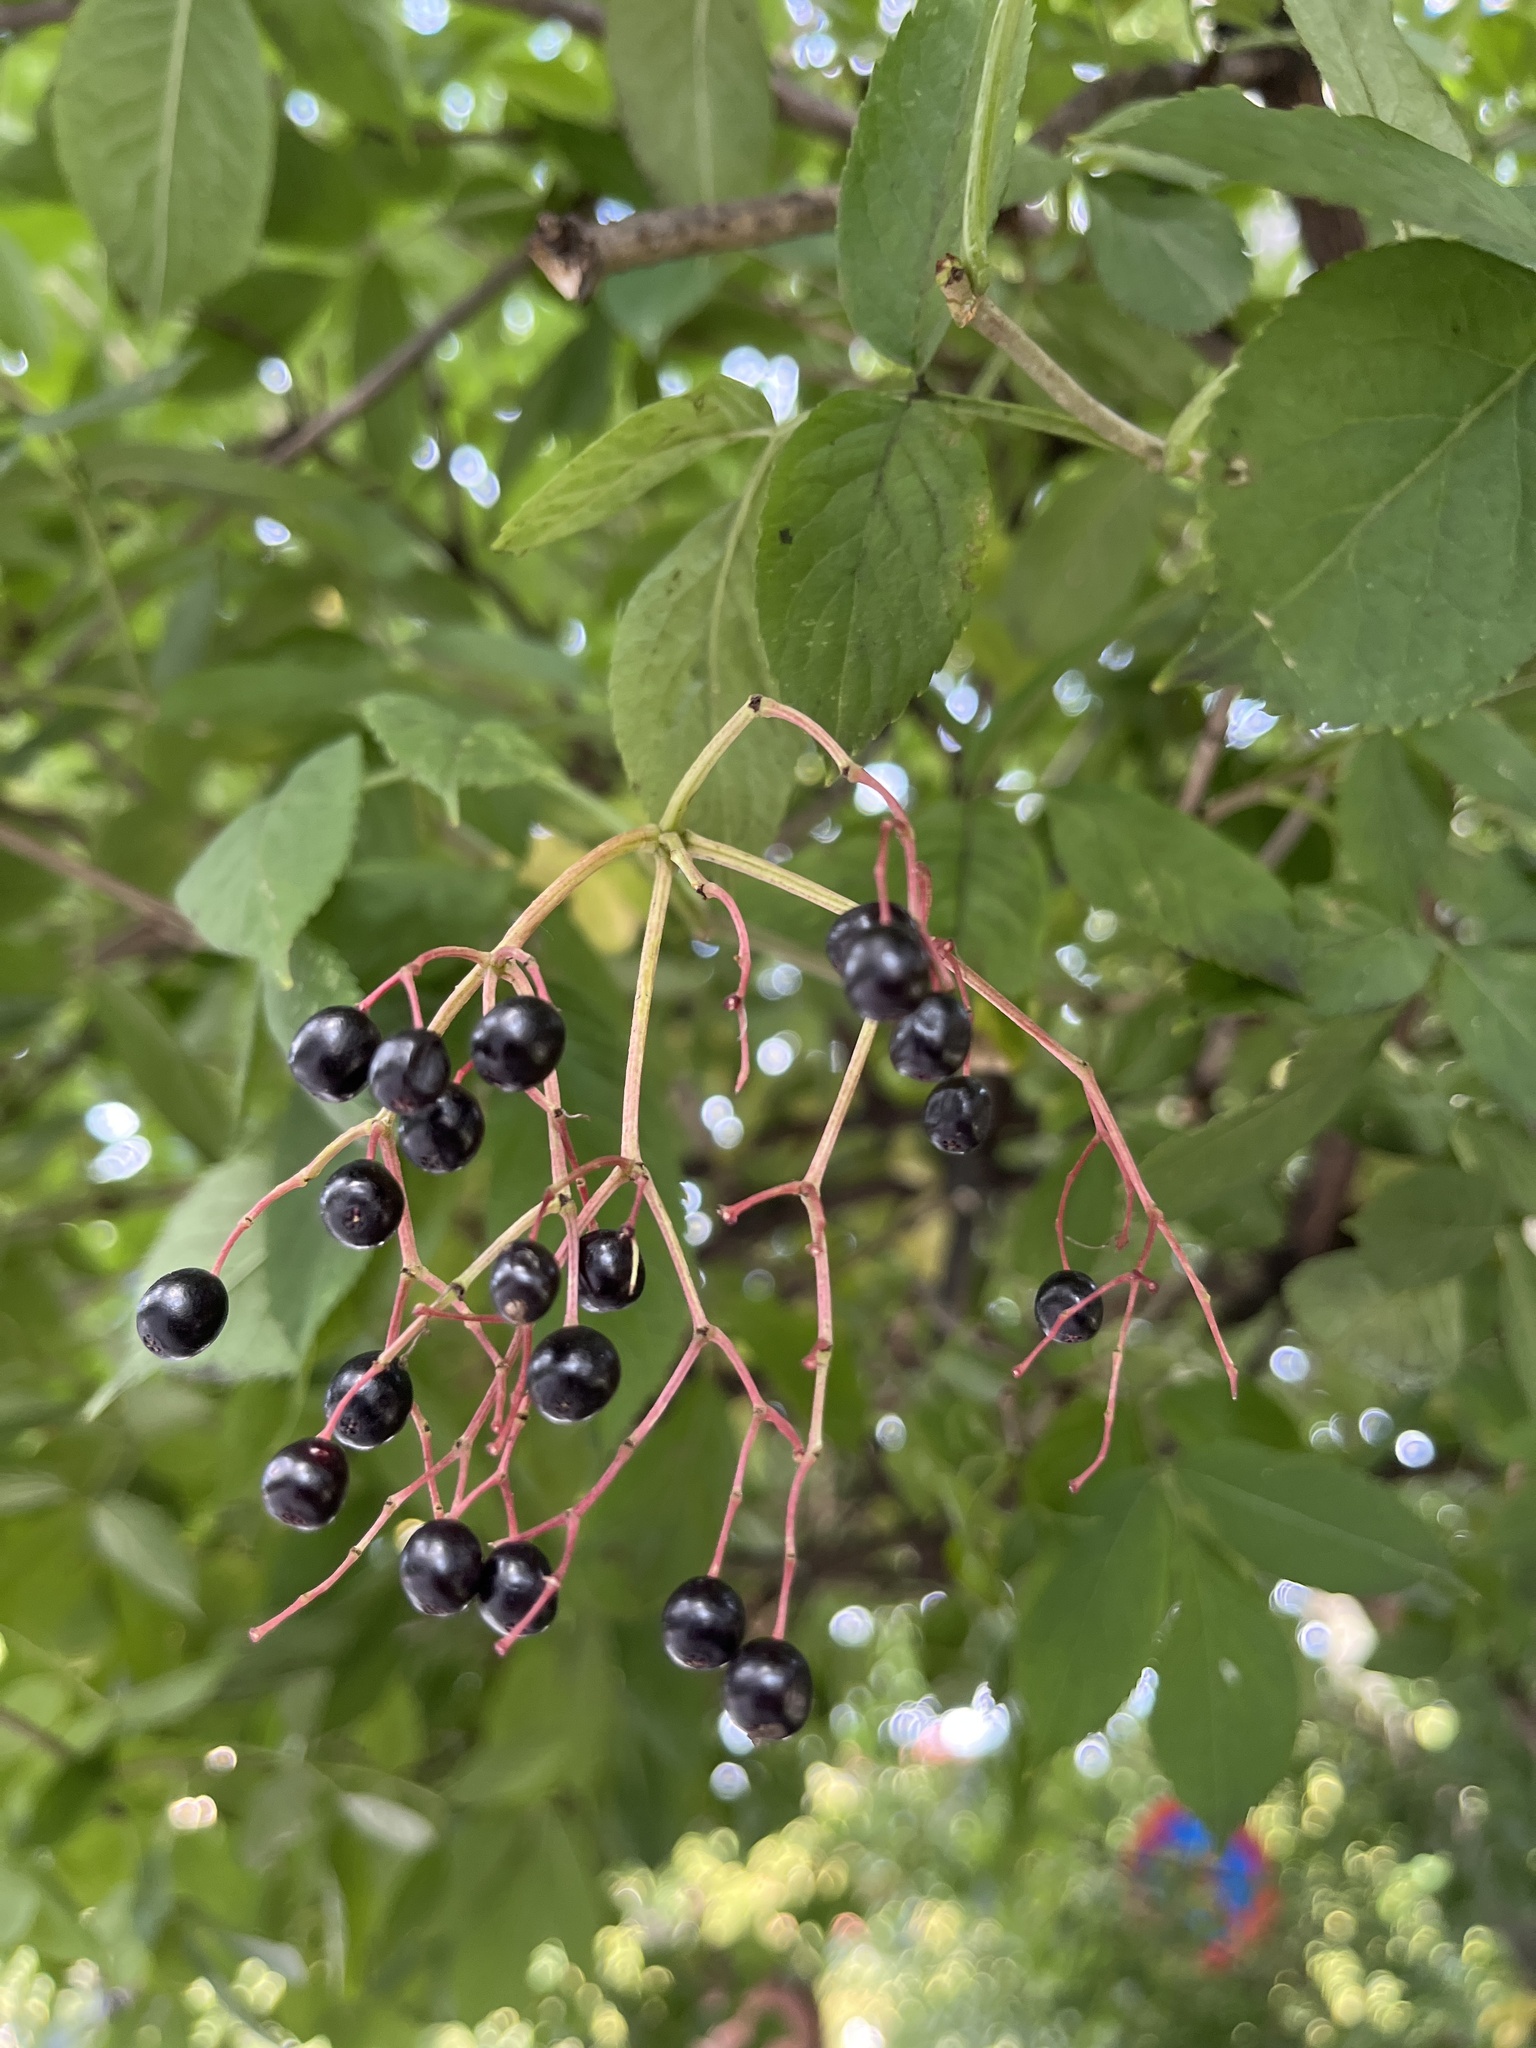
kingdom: Plantae
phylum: Tracheophyta
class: Magnoliopsida
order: Dipsacales
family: Viburnaceae
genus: Sambucus
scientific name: Sambucus nigra
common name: Elder
